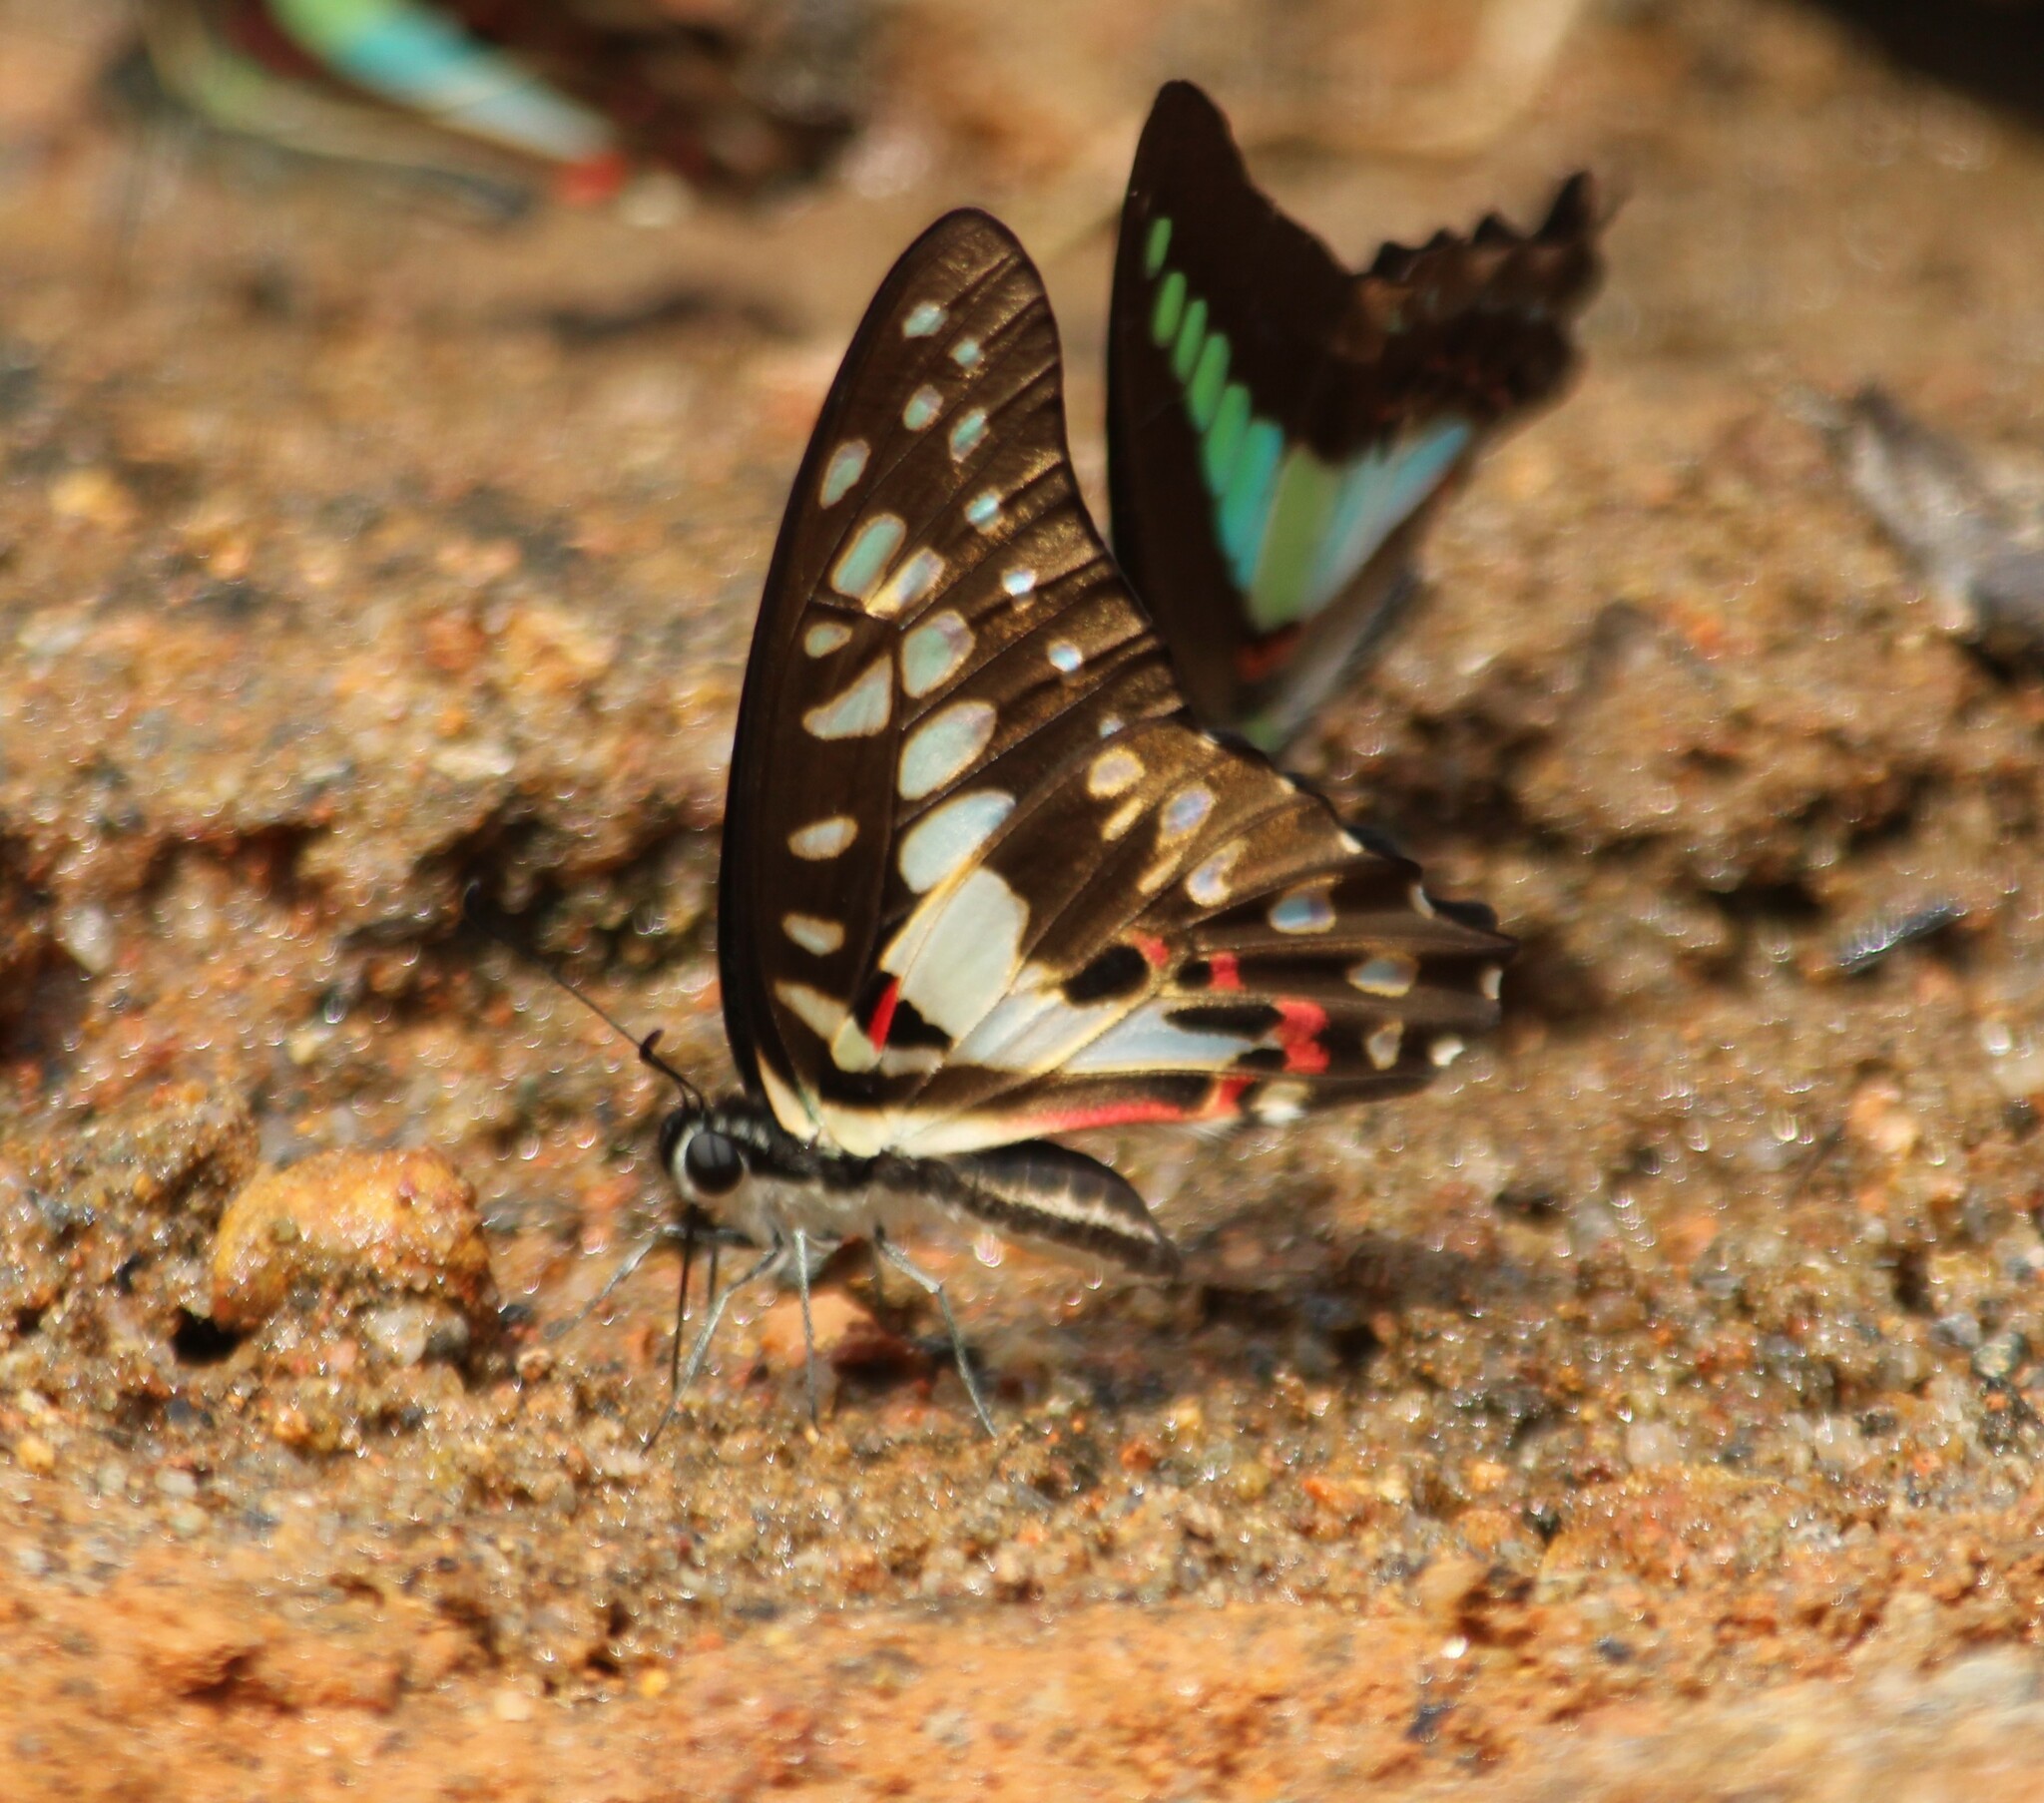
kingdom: Animalia
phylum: Arthropoda
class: Insecta
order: Lepidoptera
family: Papilionidae
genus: Graphium
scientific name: Graphium doson
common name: Common jay
